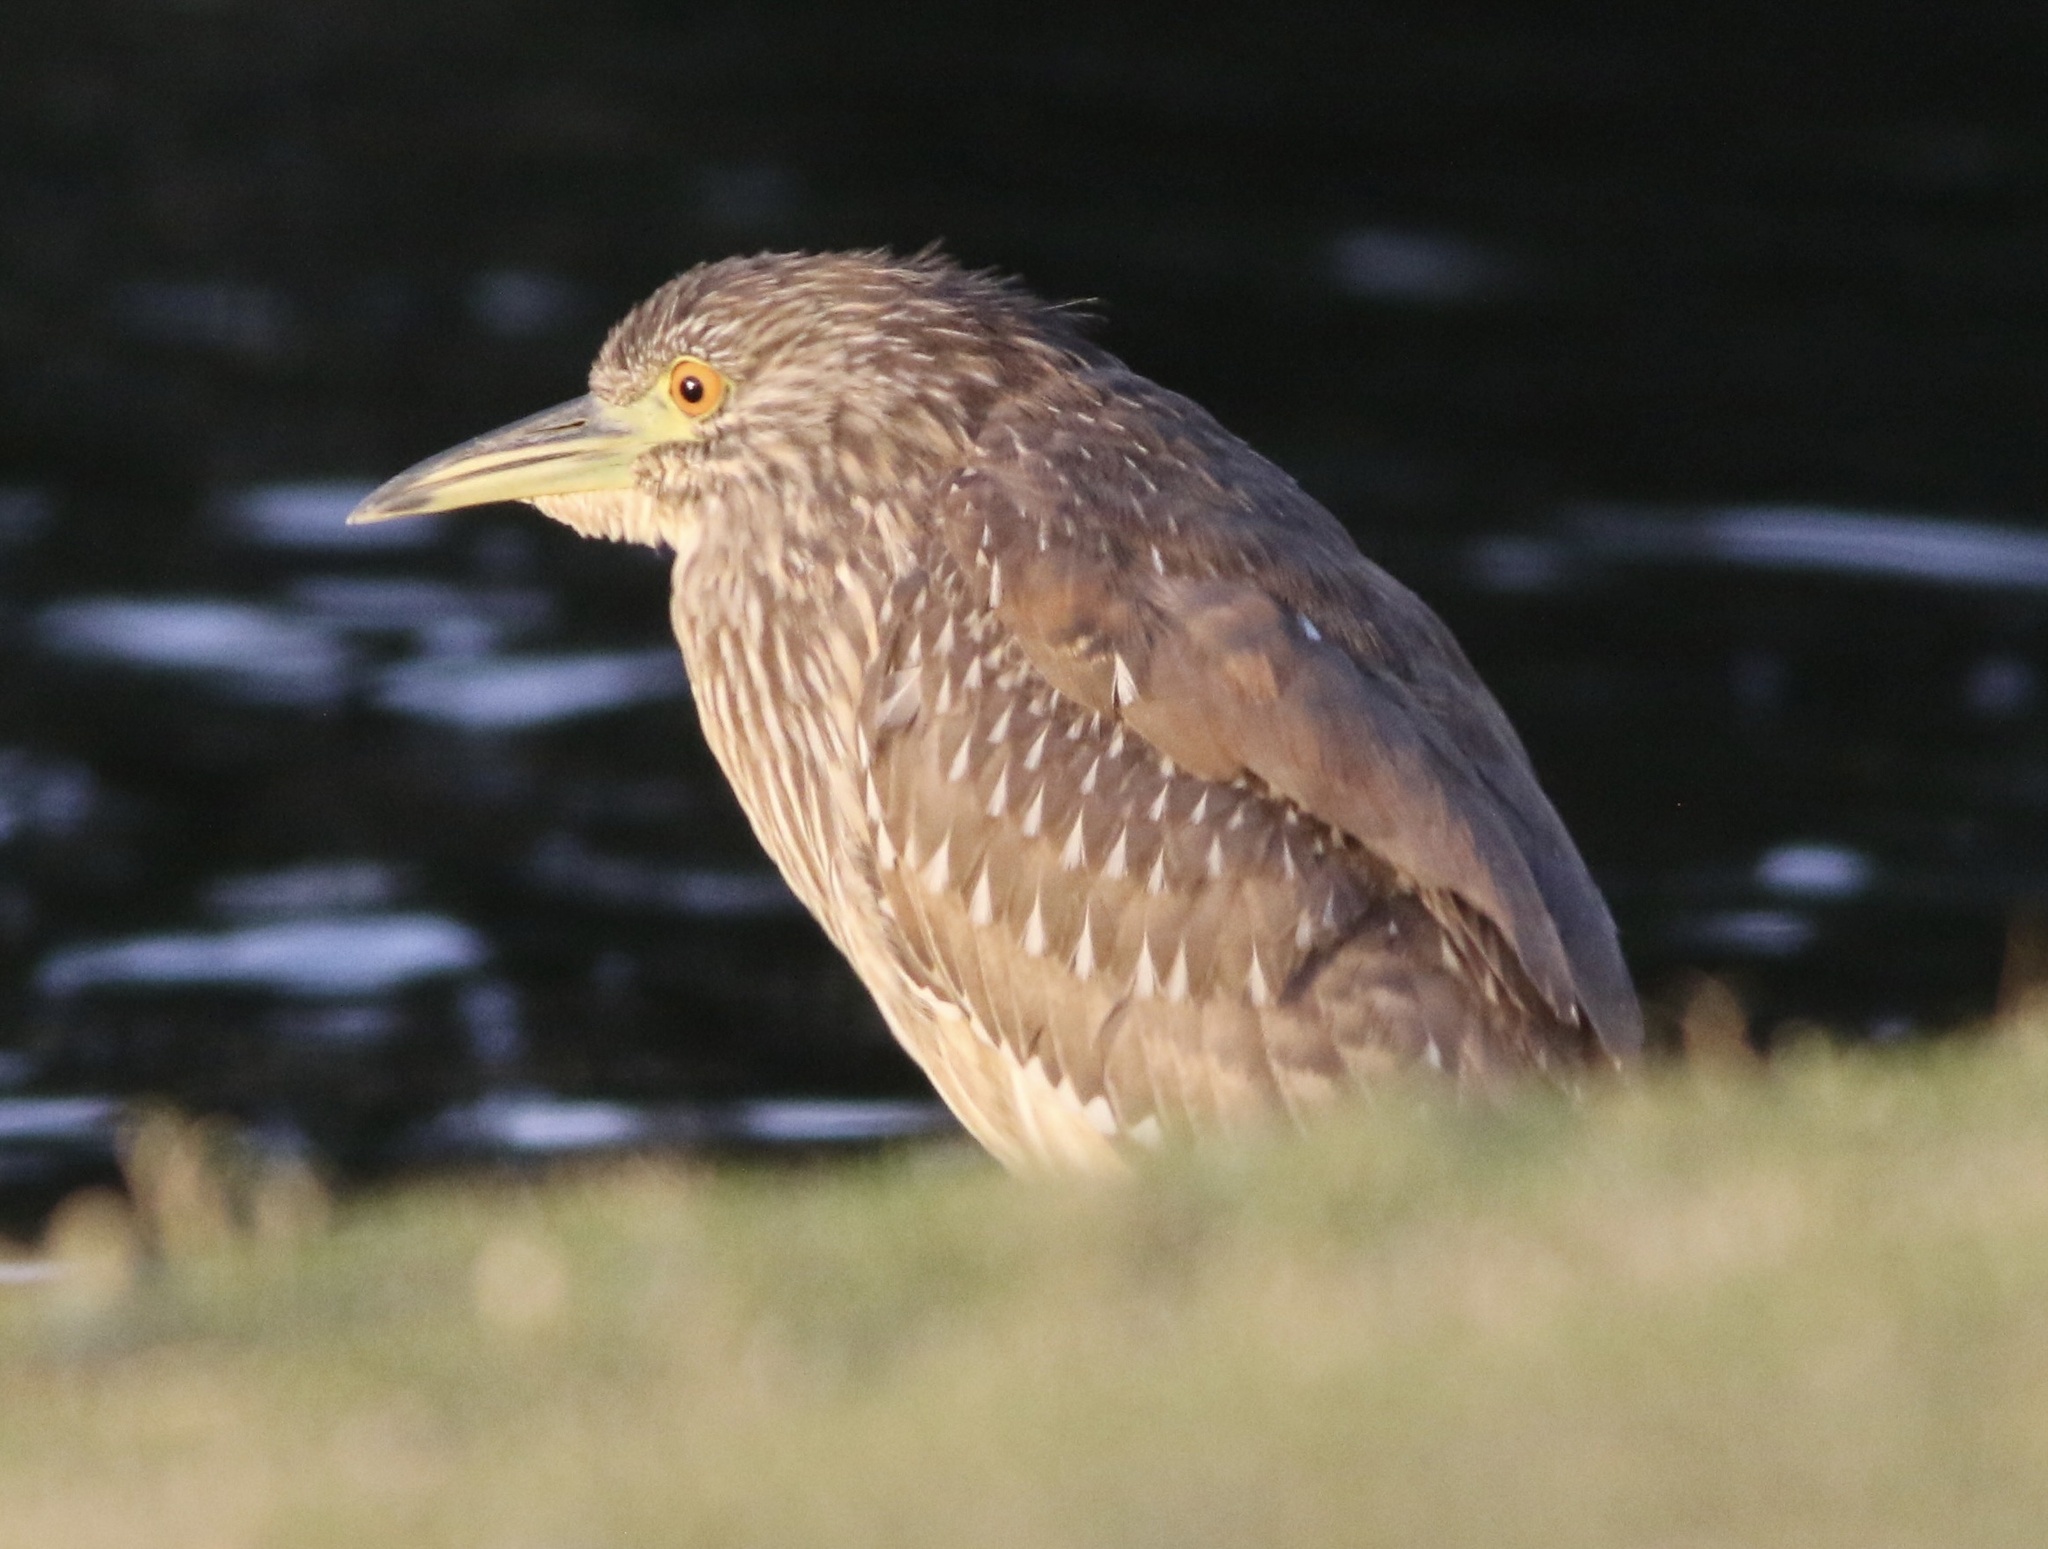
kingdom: Animalia
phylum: Chordata
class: Aves
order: Pelecaniformes
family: Ardeidae
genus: Nycticorax
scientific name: Nycticorax nycticorax
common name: Black-crowned night heron
